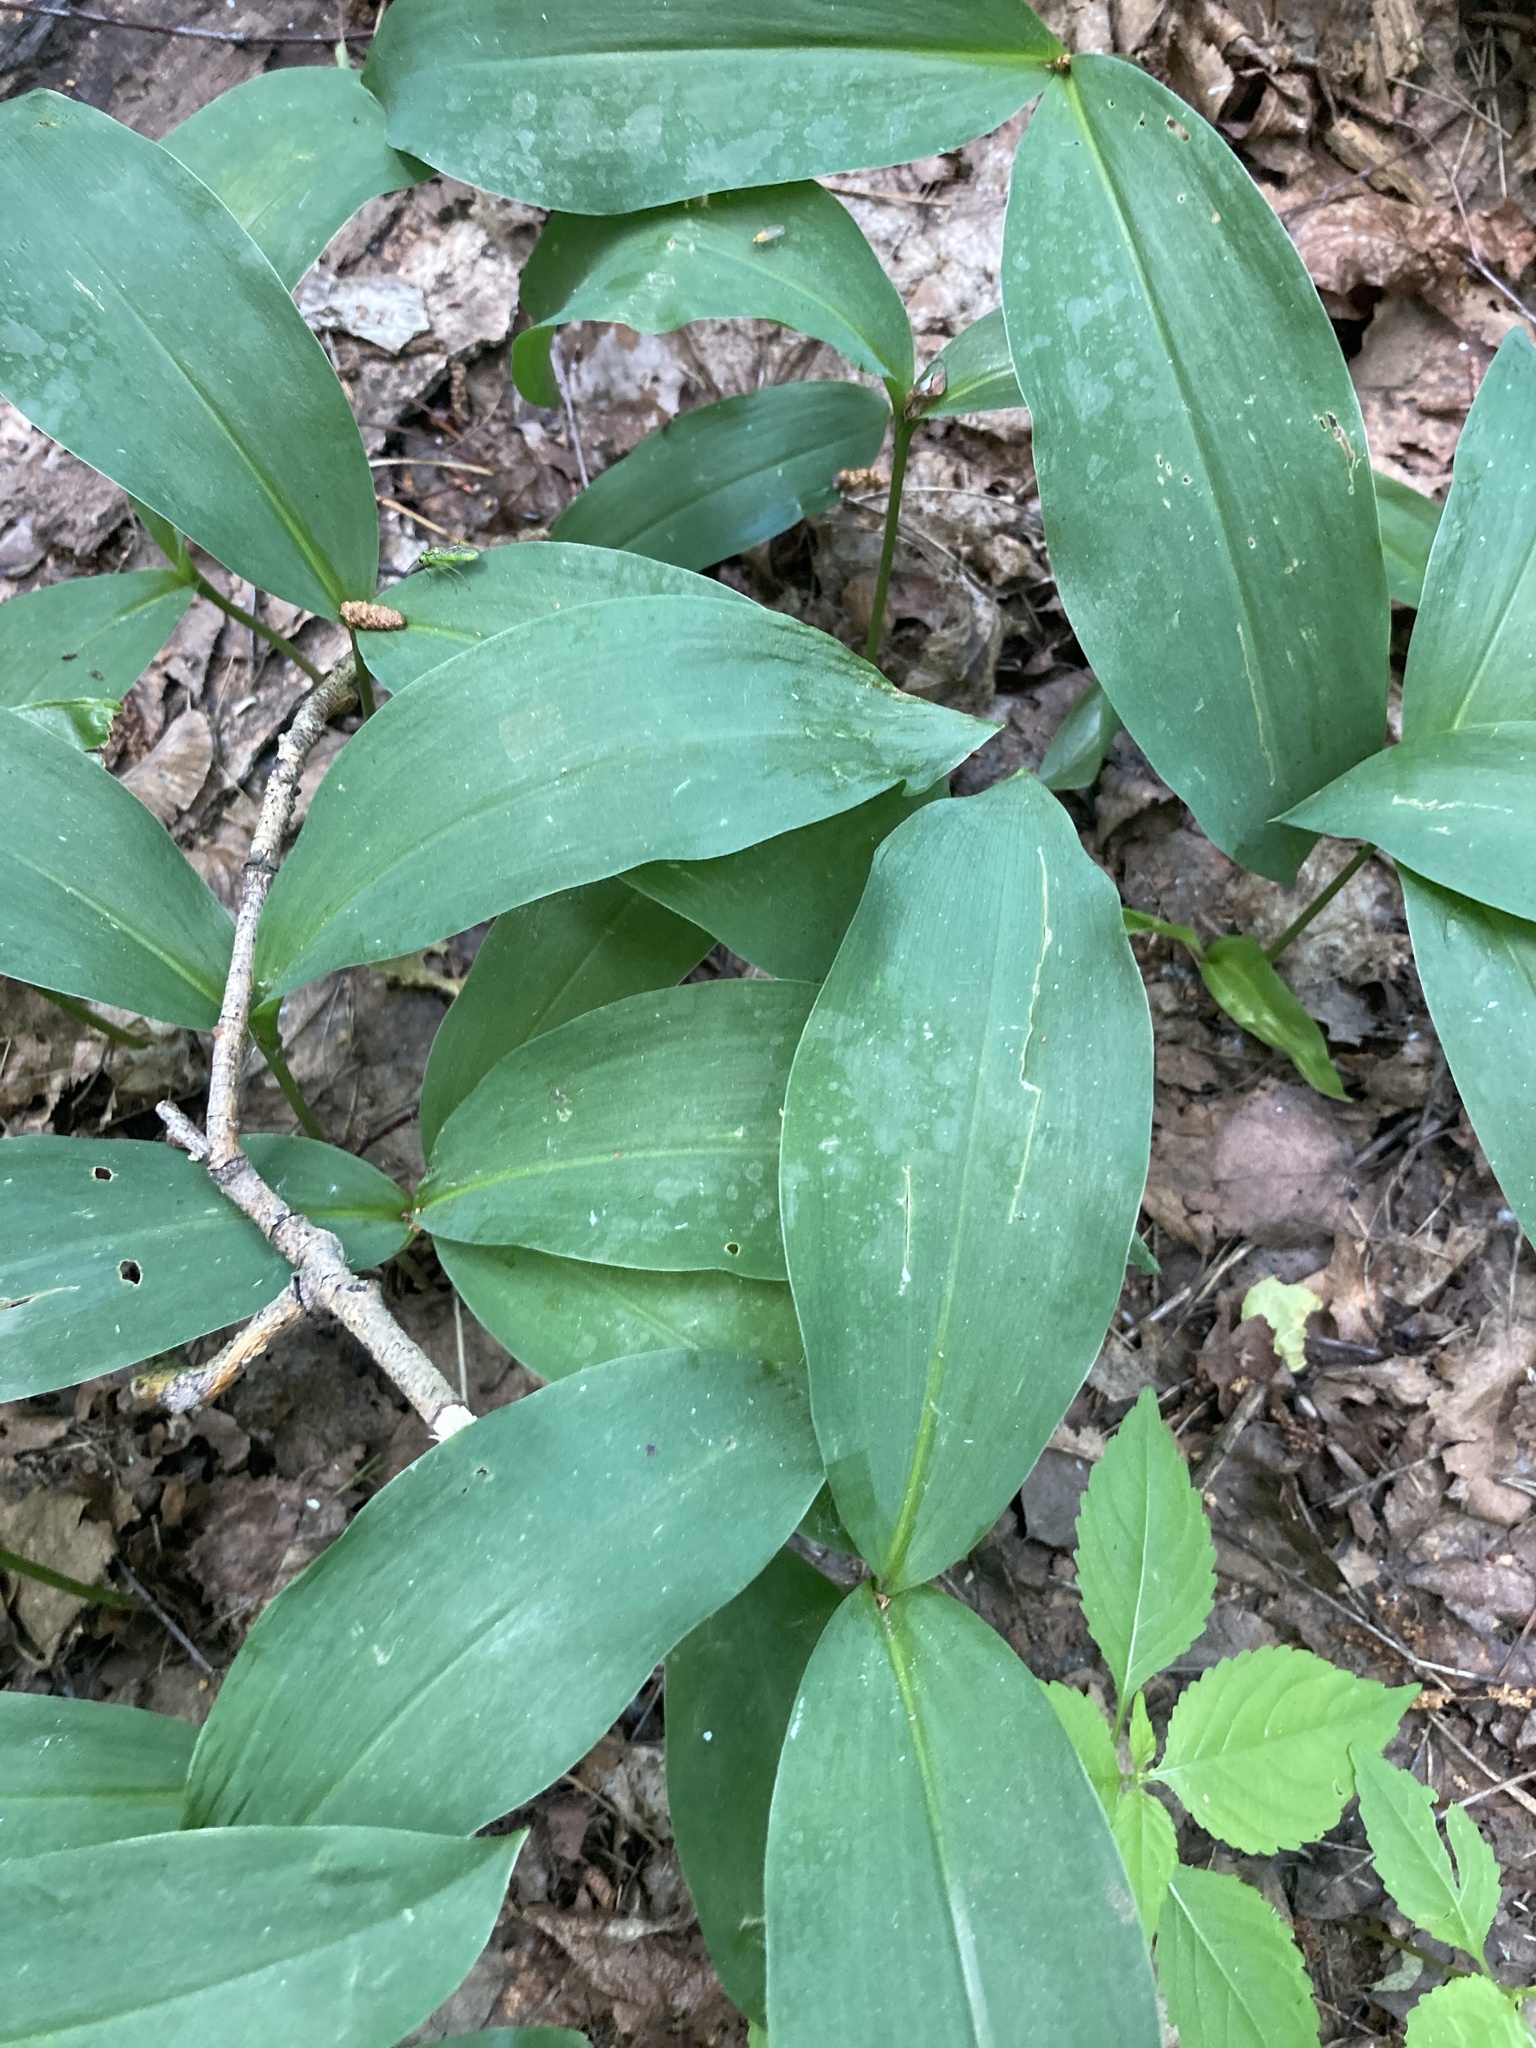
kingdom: Plantae
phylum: Tracheophyta
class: Liliopsida
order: Asparagales
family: Asparagaceae
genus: Convallaria
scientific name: Convallaria majalis
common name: Lily-of-the-valley
